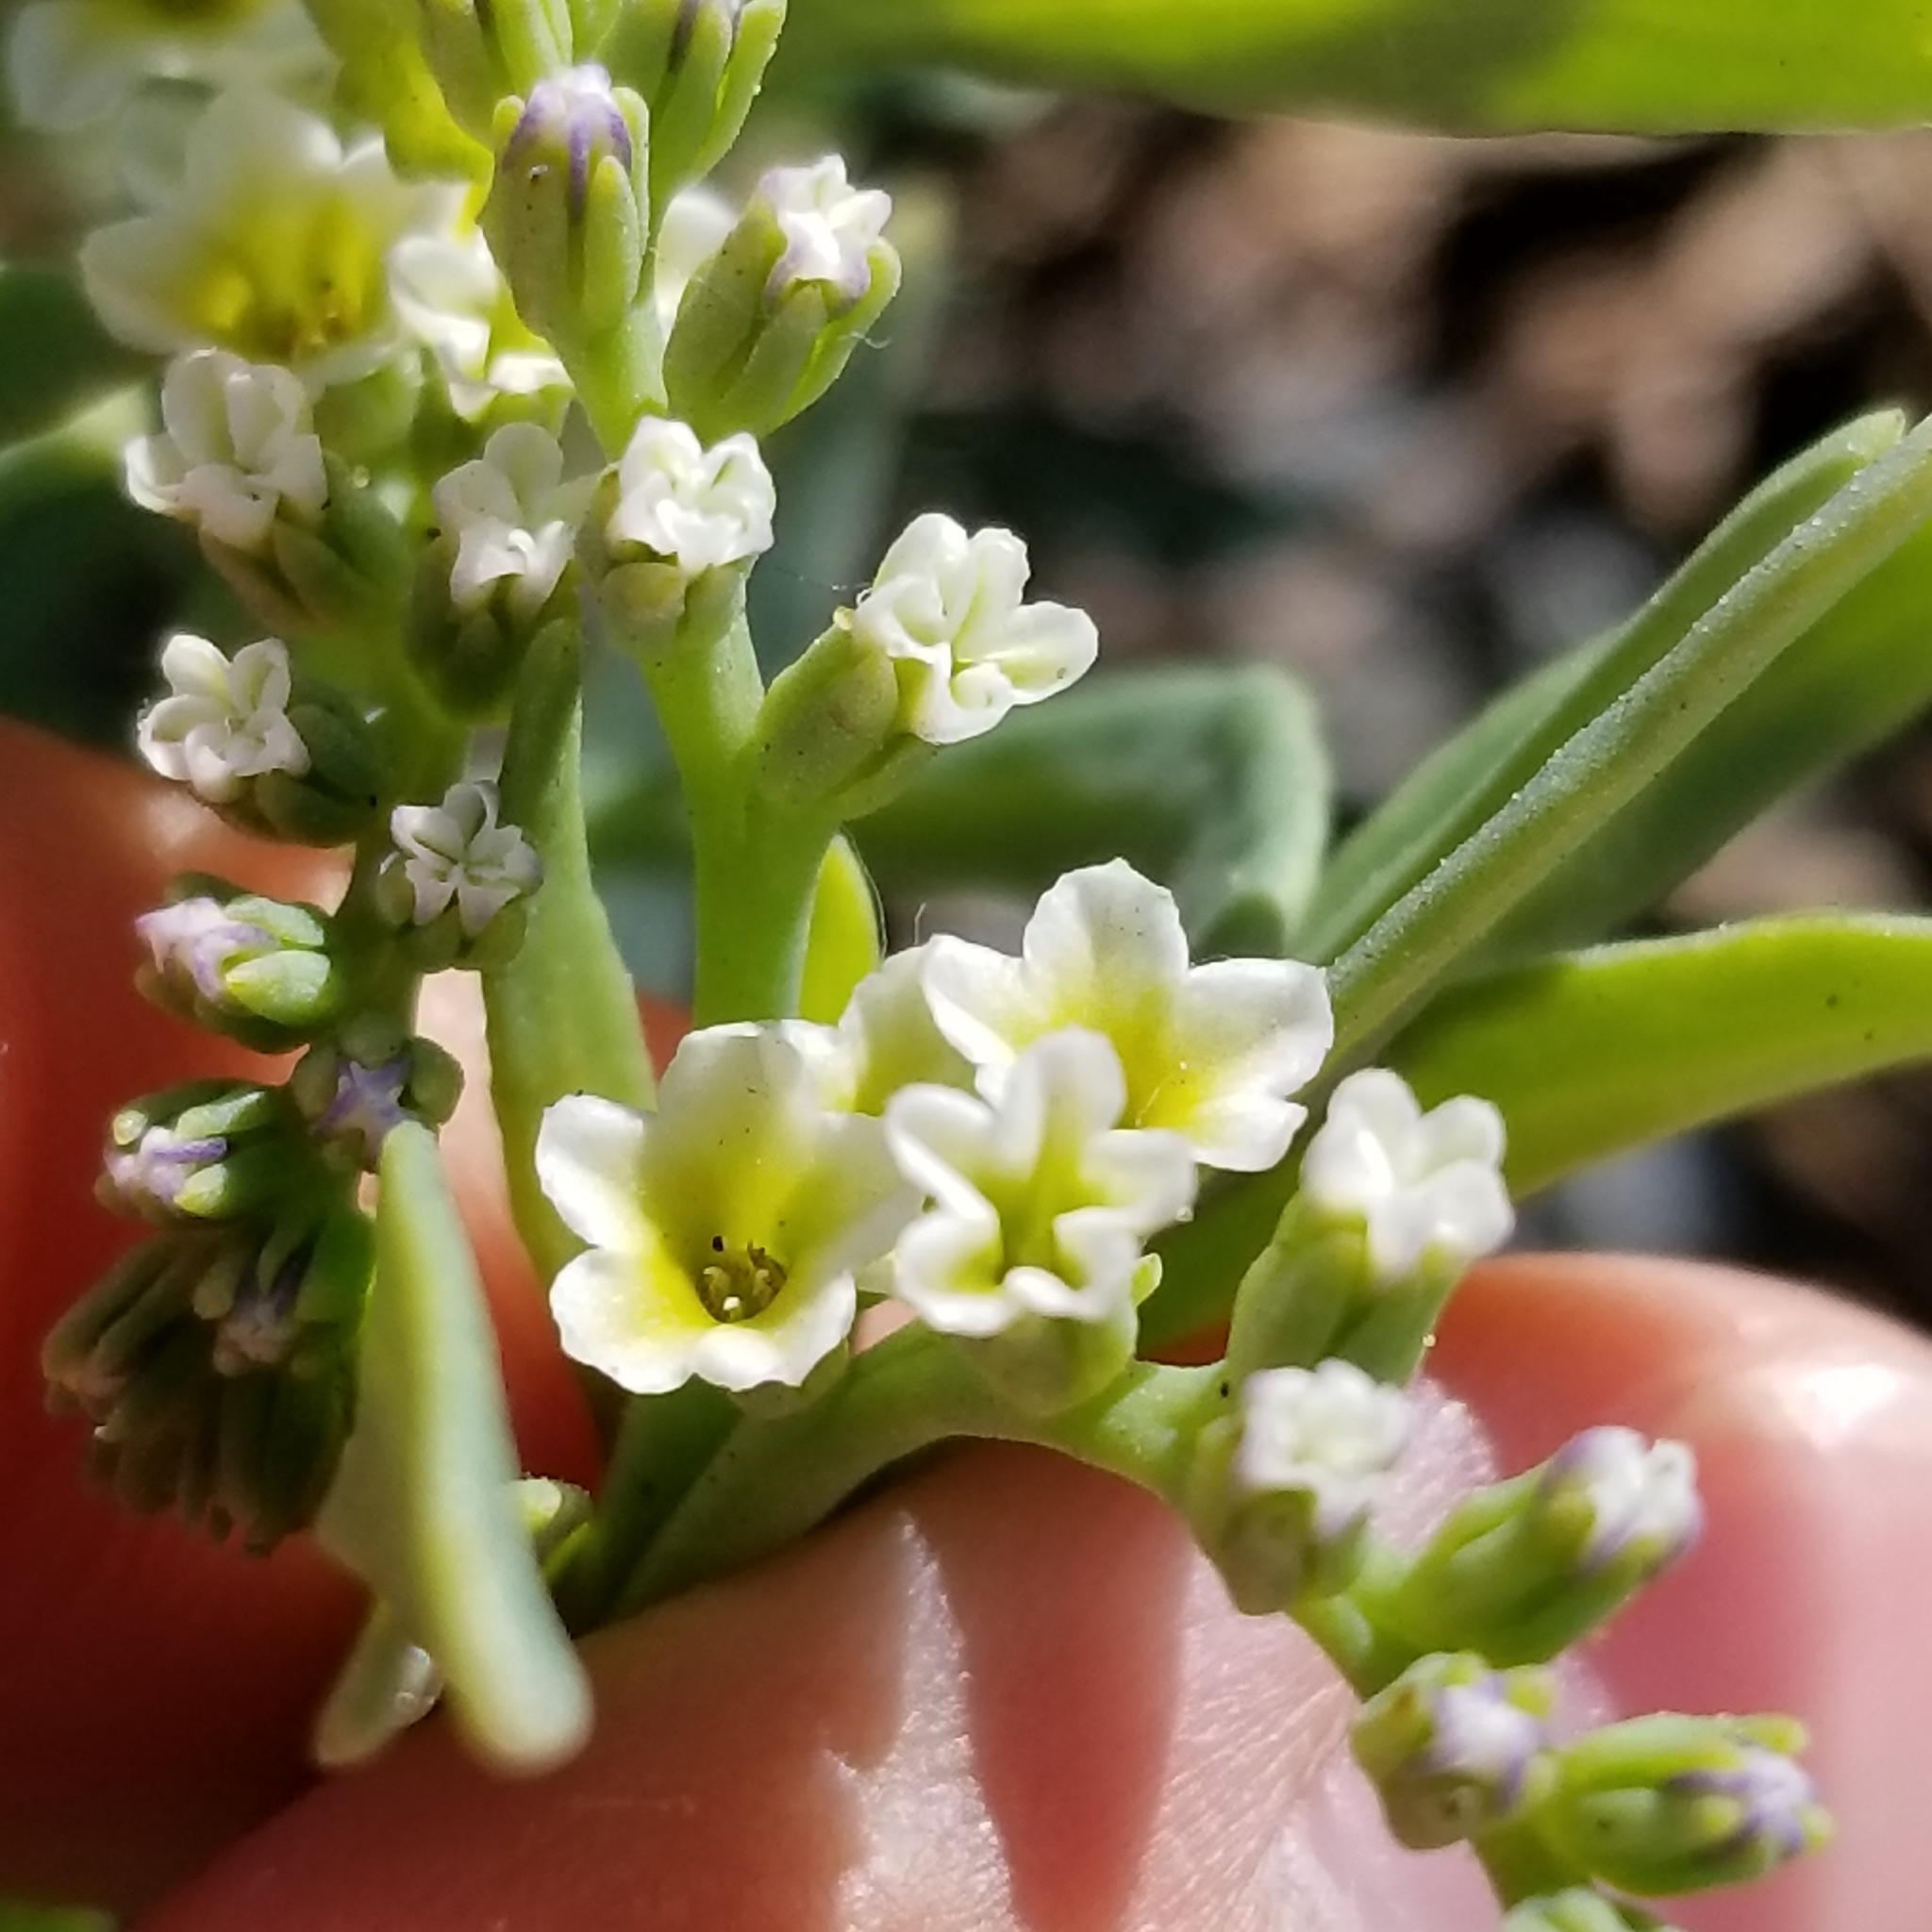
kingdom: Plantae
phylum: Tracheophyta
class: Magnoliopsida
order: Boraginales
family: Heliotropiaceae
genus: Heliotropium
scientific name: Heliotropium curassavicum
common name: Seaside heliotrope
